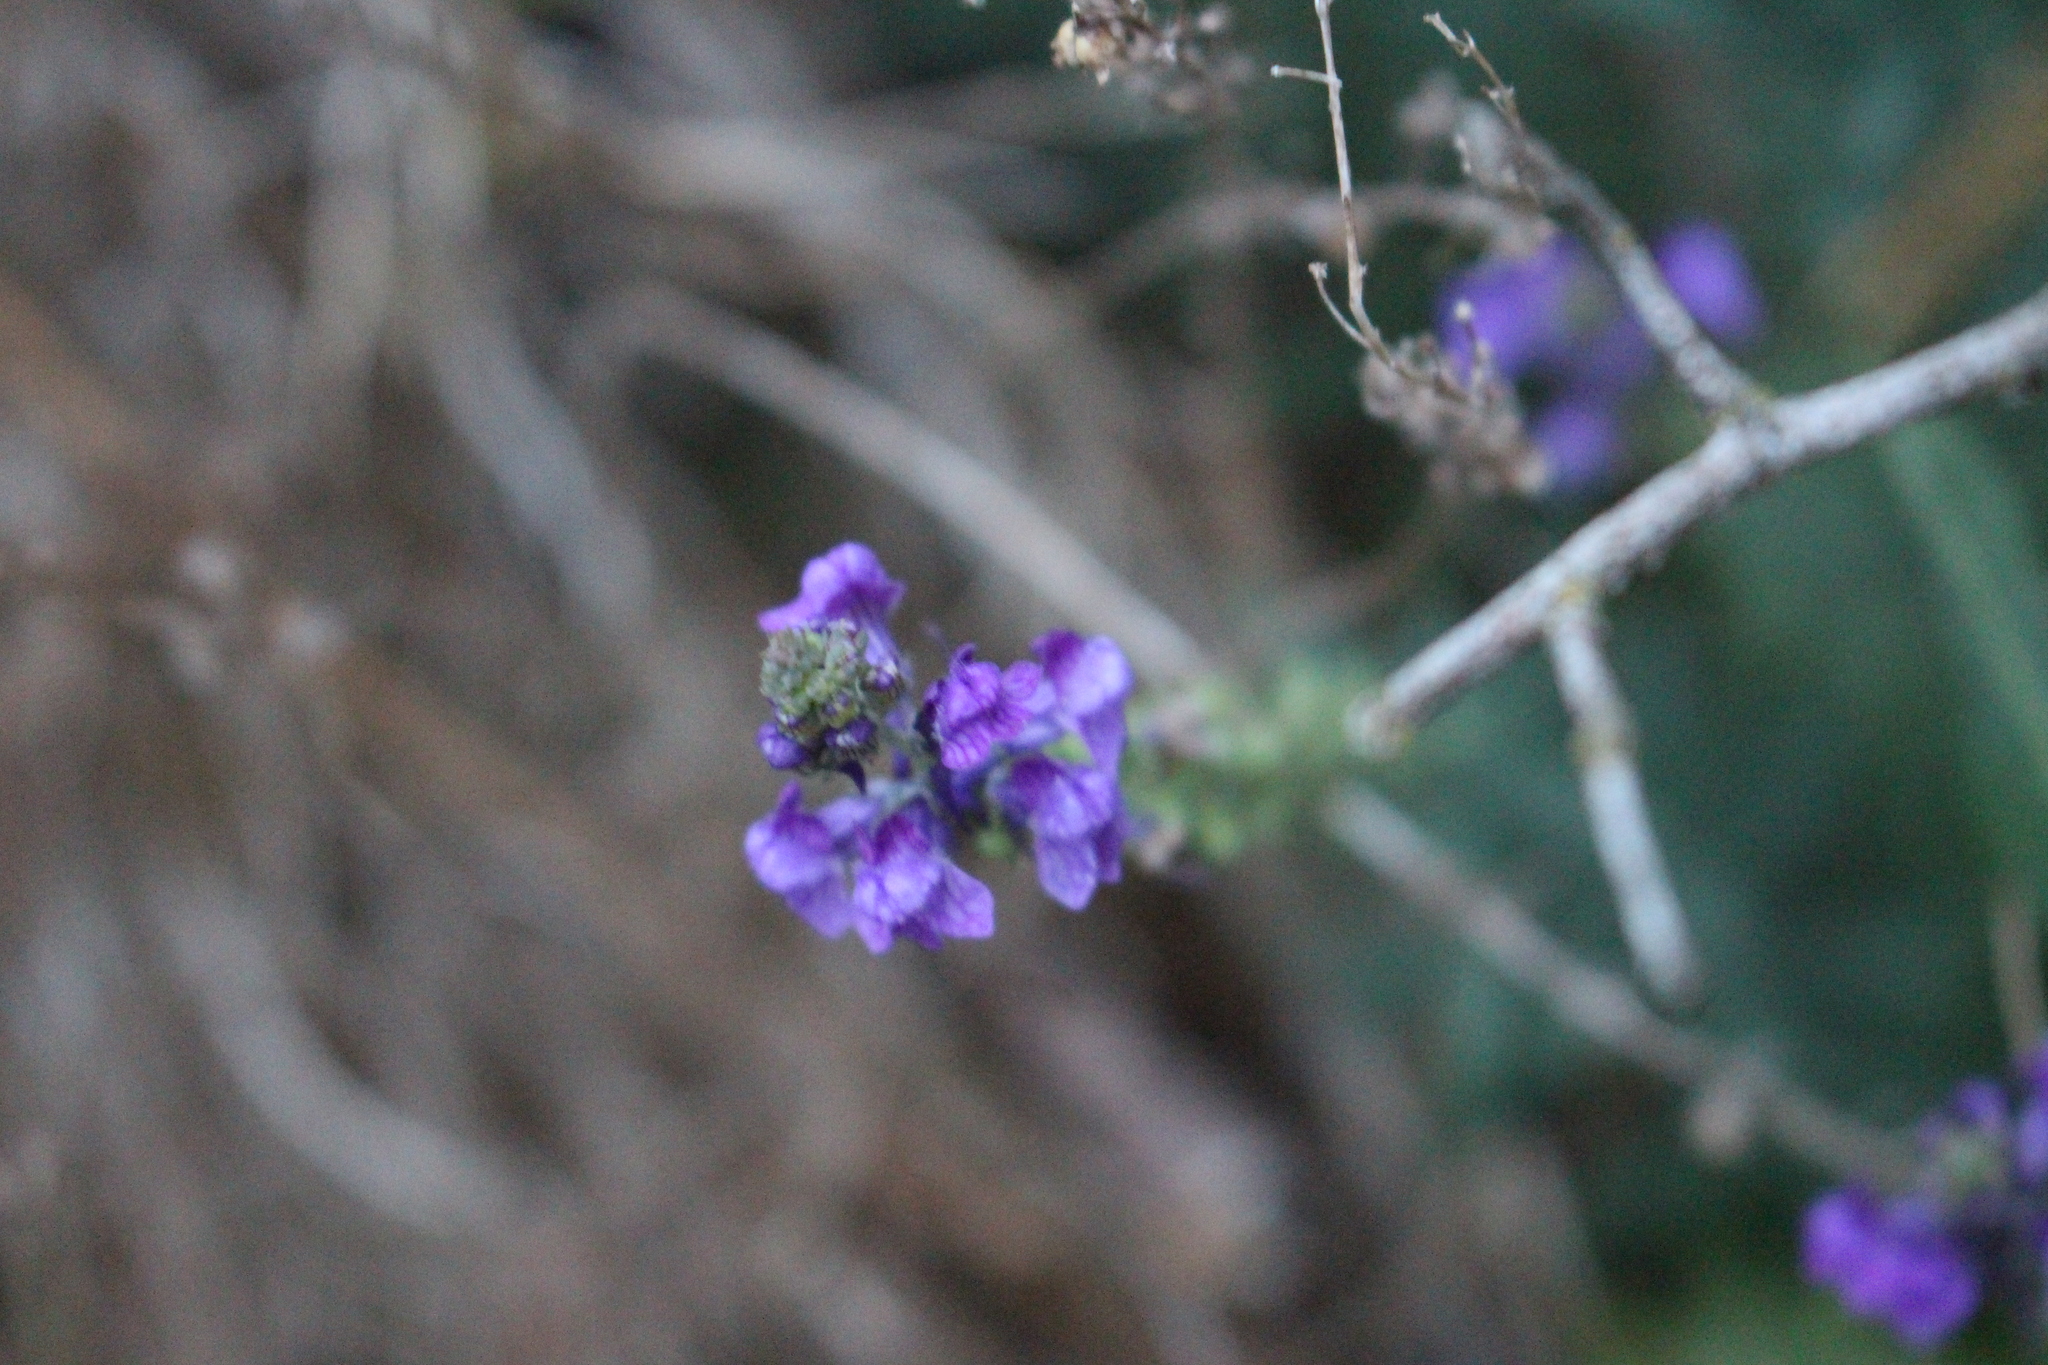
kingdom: Plantae
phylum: Tracheophyta
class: Magnoliopsida
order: Lamiales
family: Plantaginaceae
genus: Linaria
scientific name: Linaria purpurea
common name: Purple toadflax
